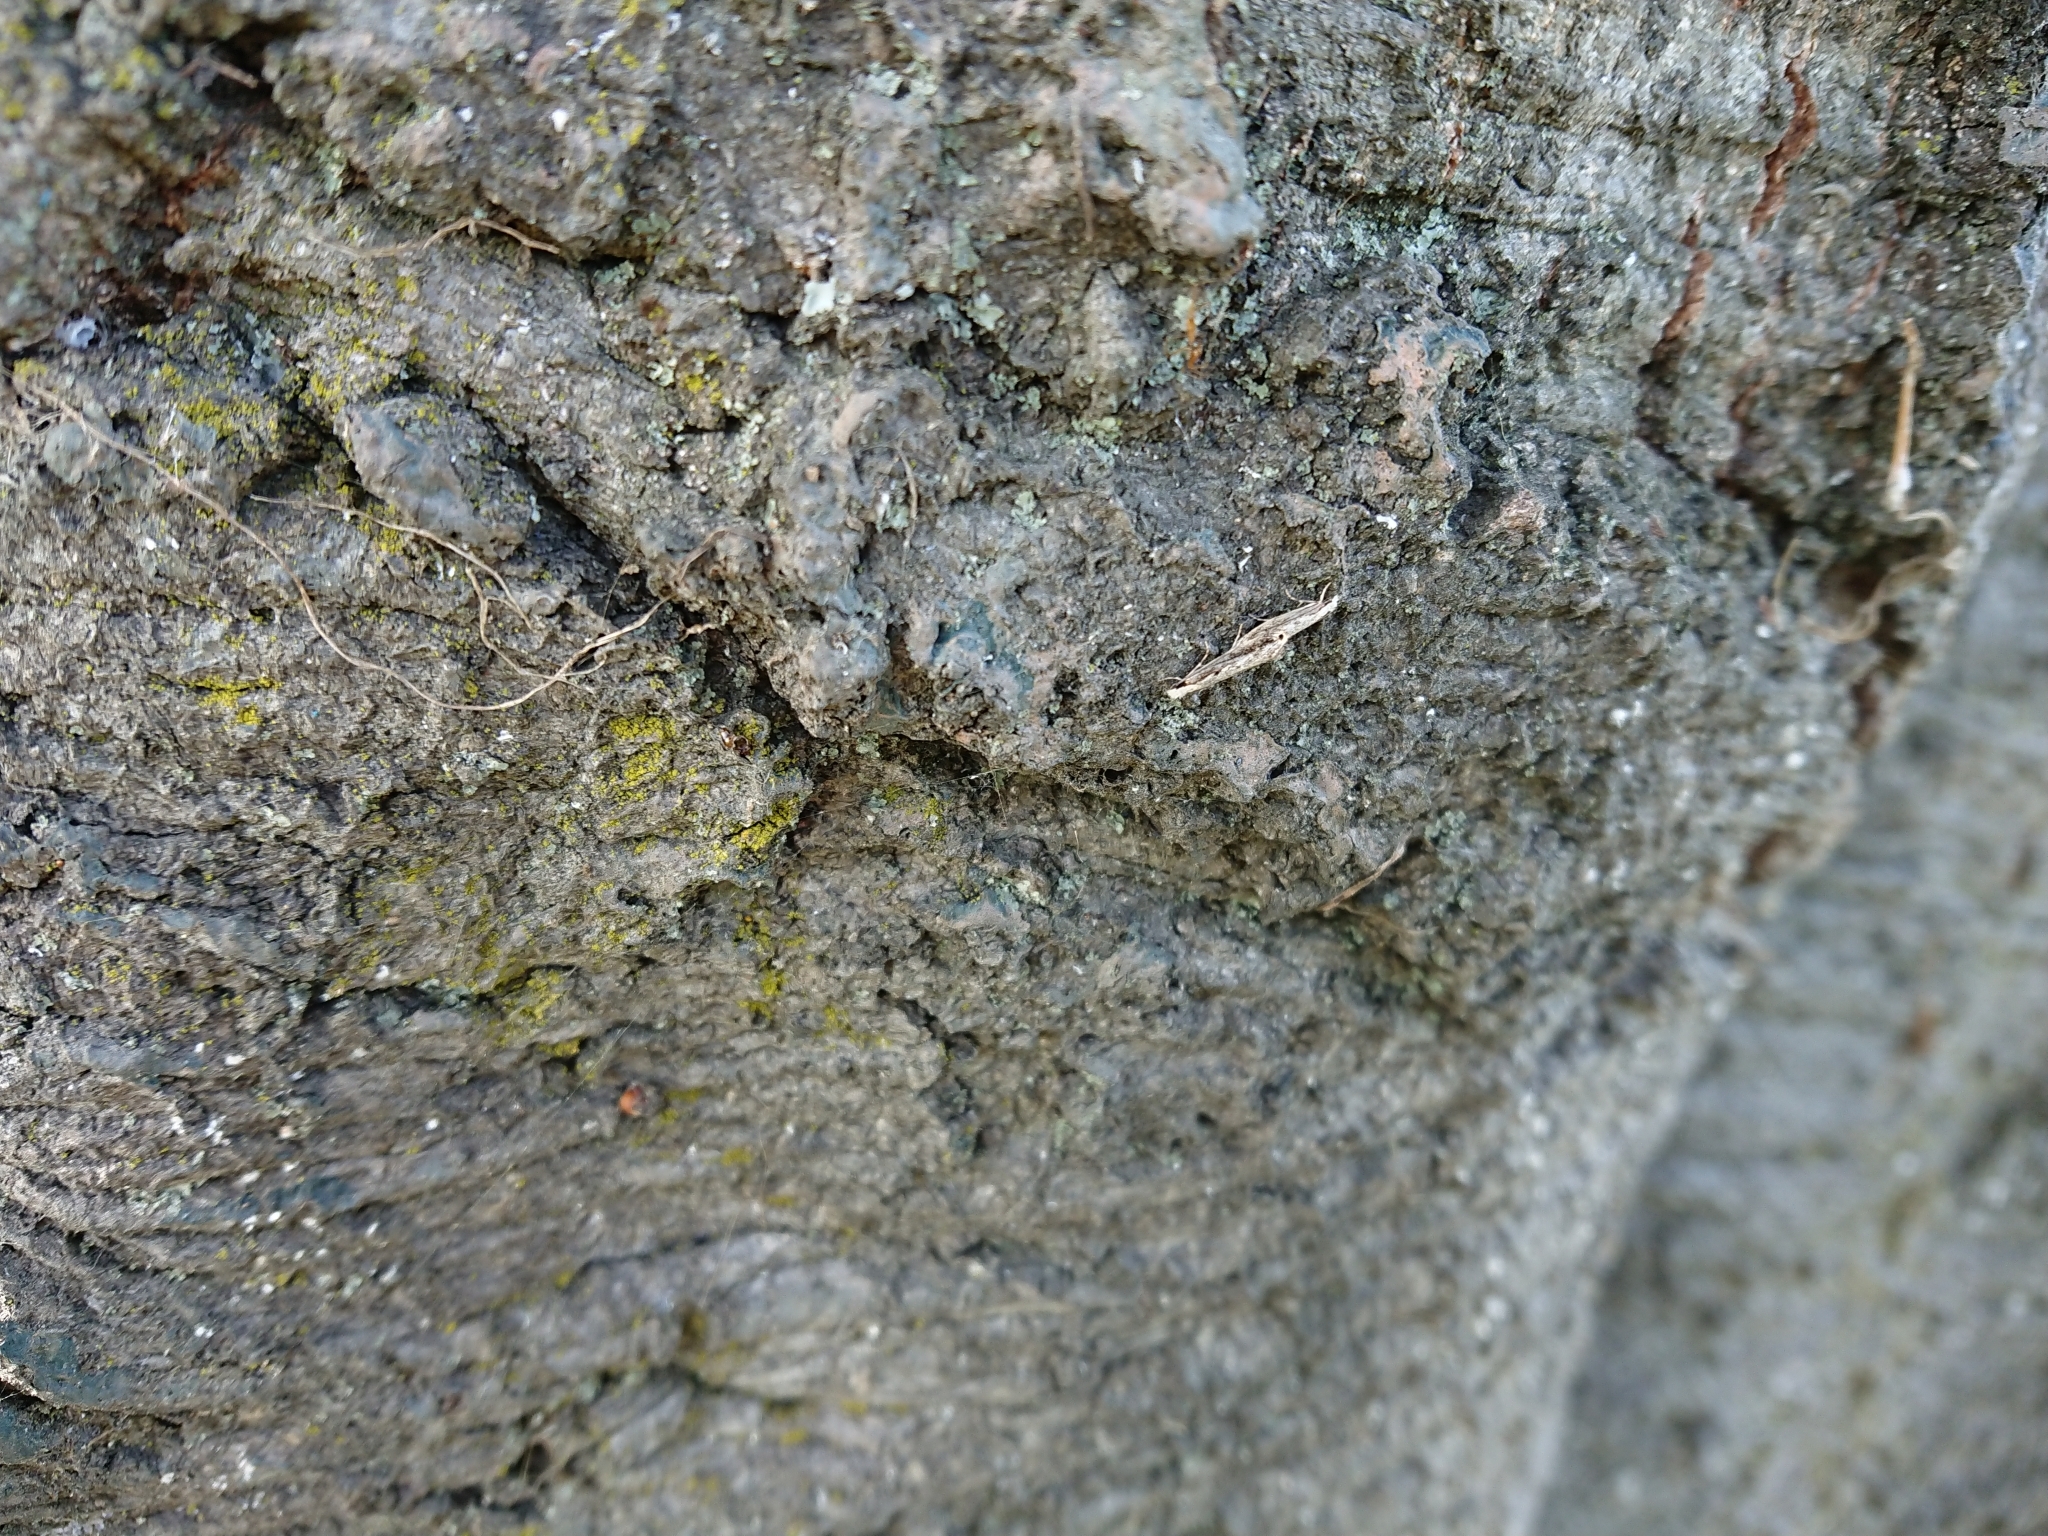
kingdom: Animalia
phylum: Arthropoda
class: Insecta
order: Lepidoptera
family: Tineidae
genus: Erechthias
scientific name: Erechthias fulguritella
